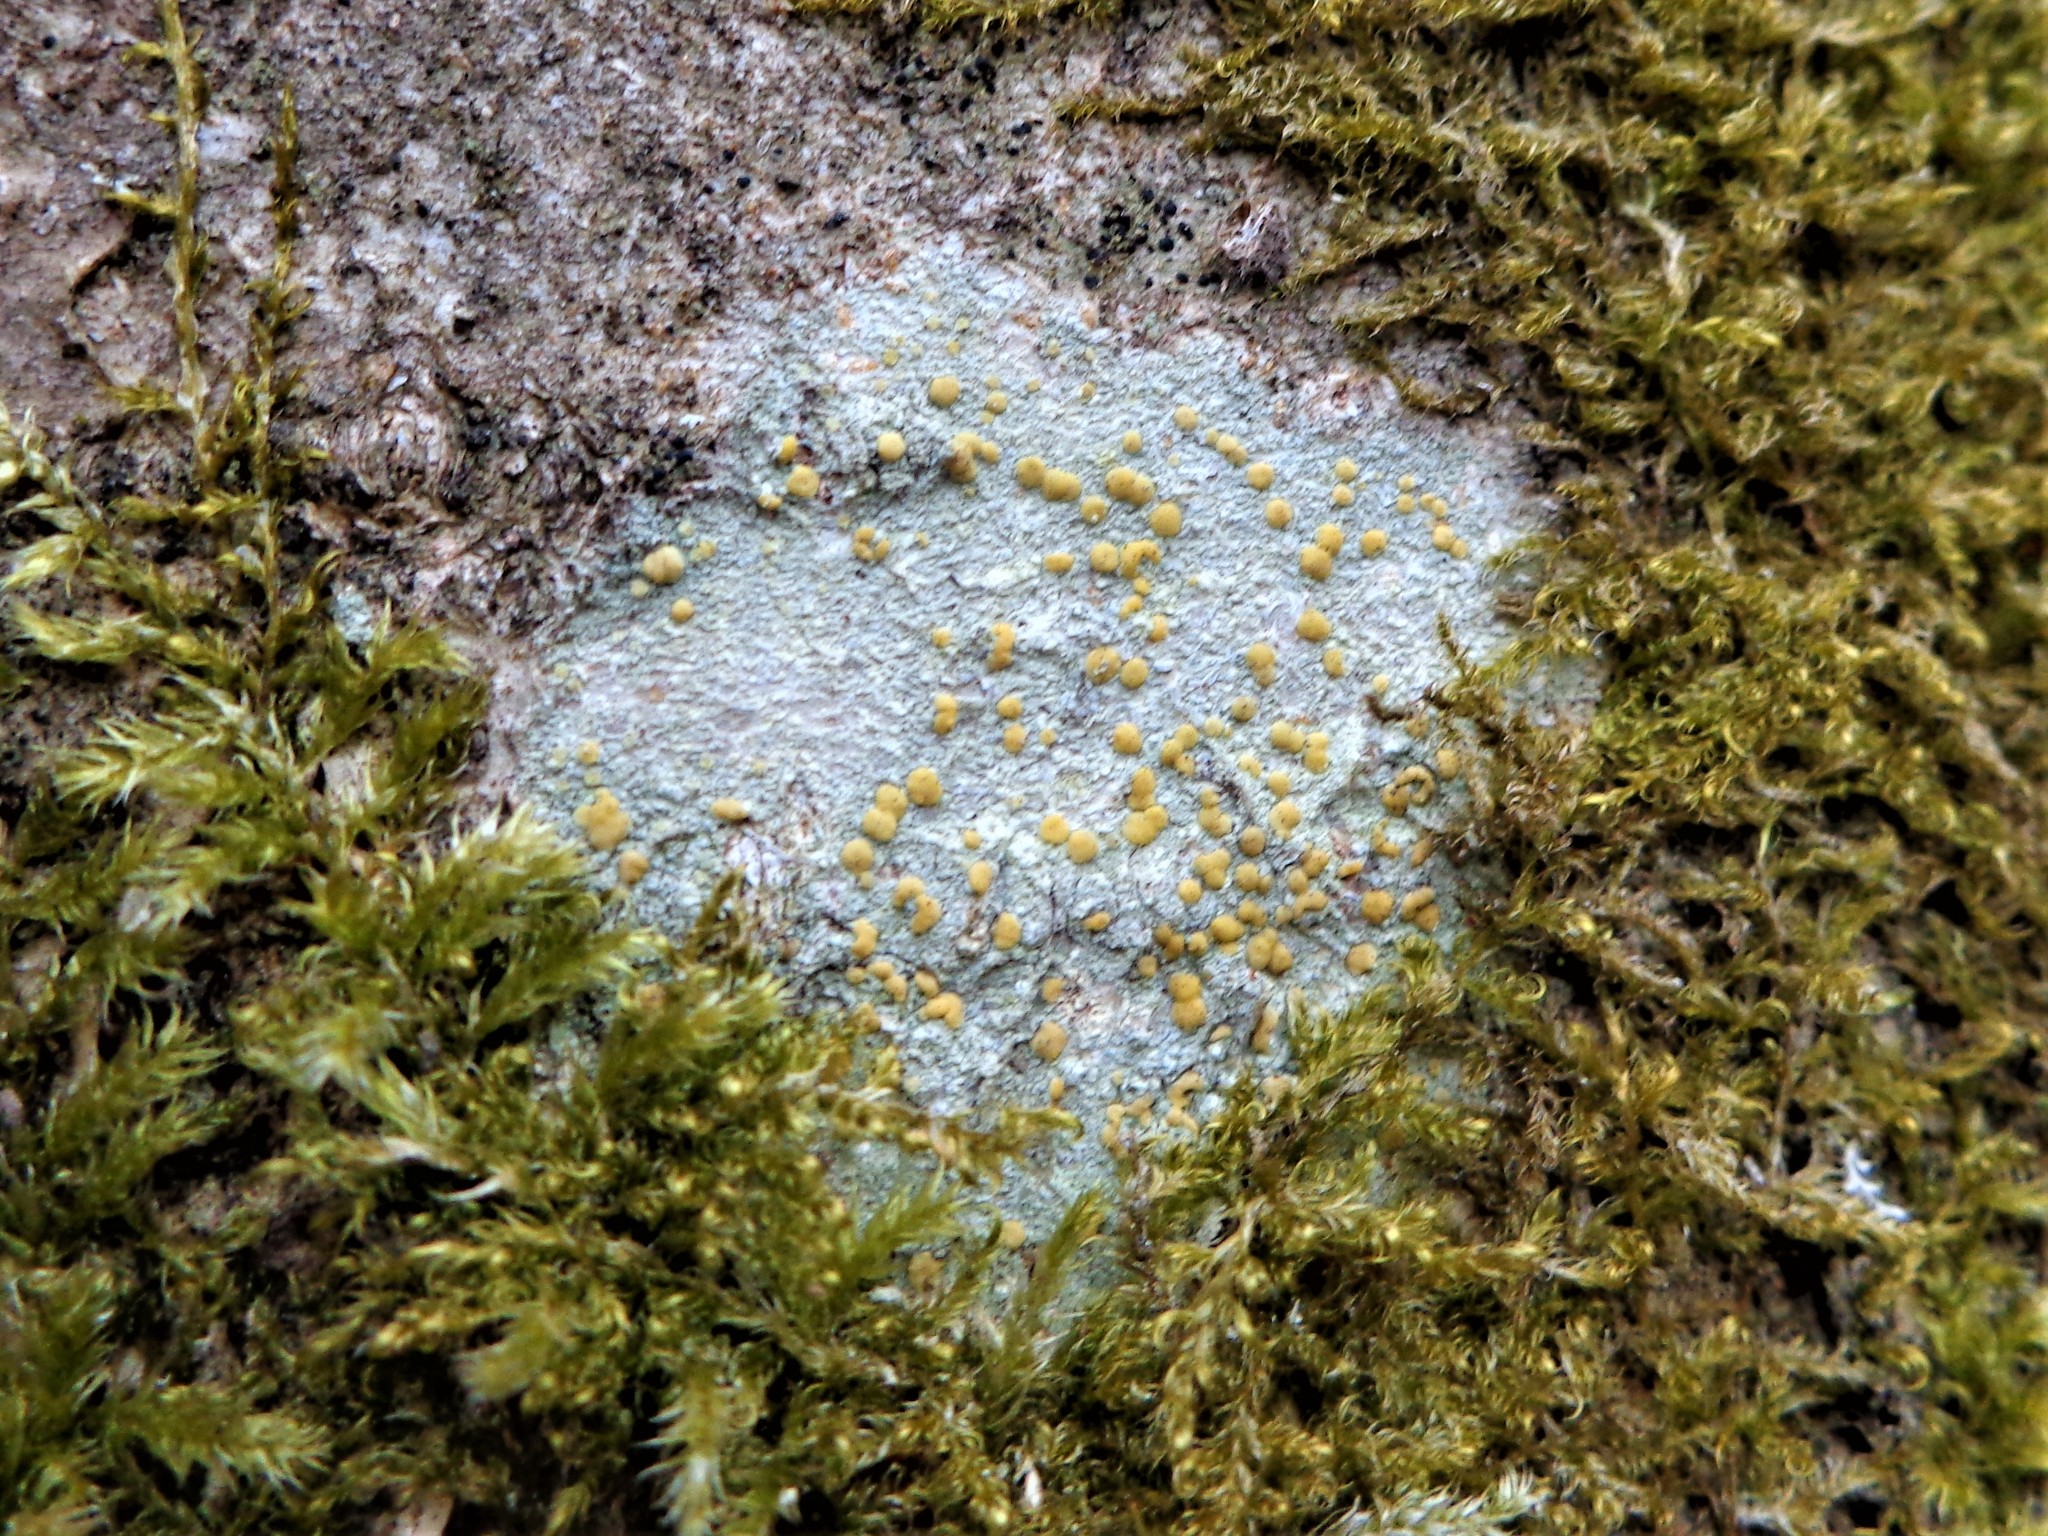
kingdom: Fungi
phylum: Ascomycota
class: Lecanoromycetes
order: Lecanorales
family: Lecanoraceae
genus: Lecanora
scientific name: Lecanora symmicta
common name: Fused rim lichen
